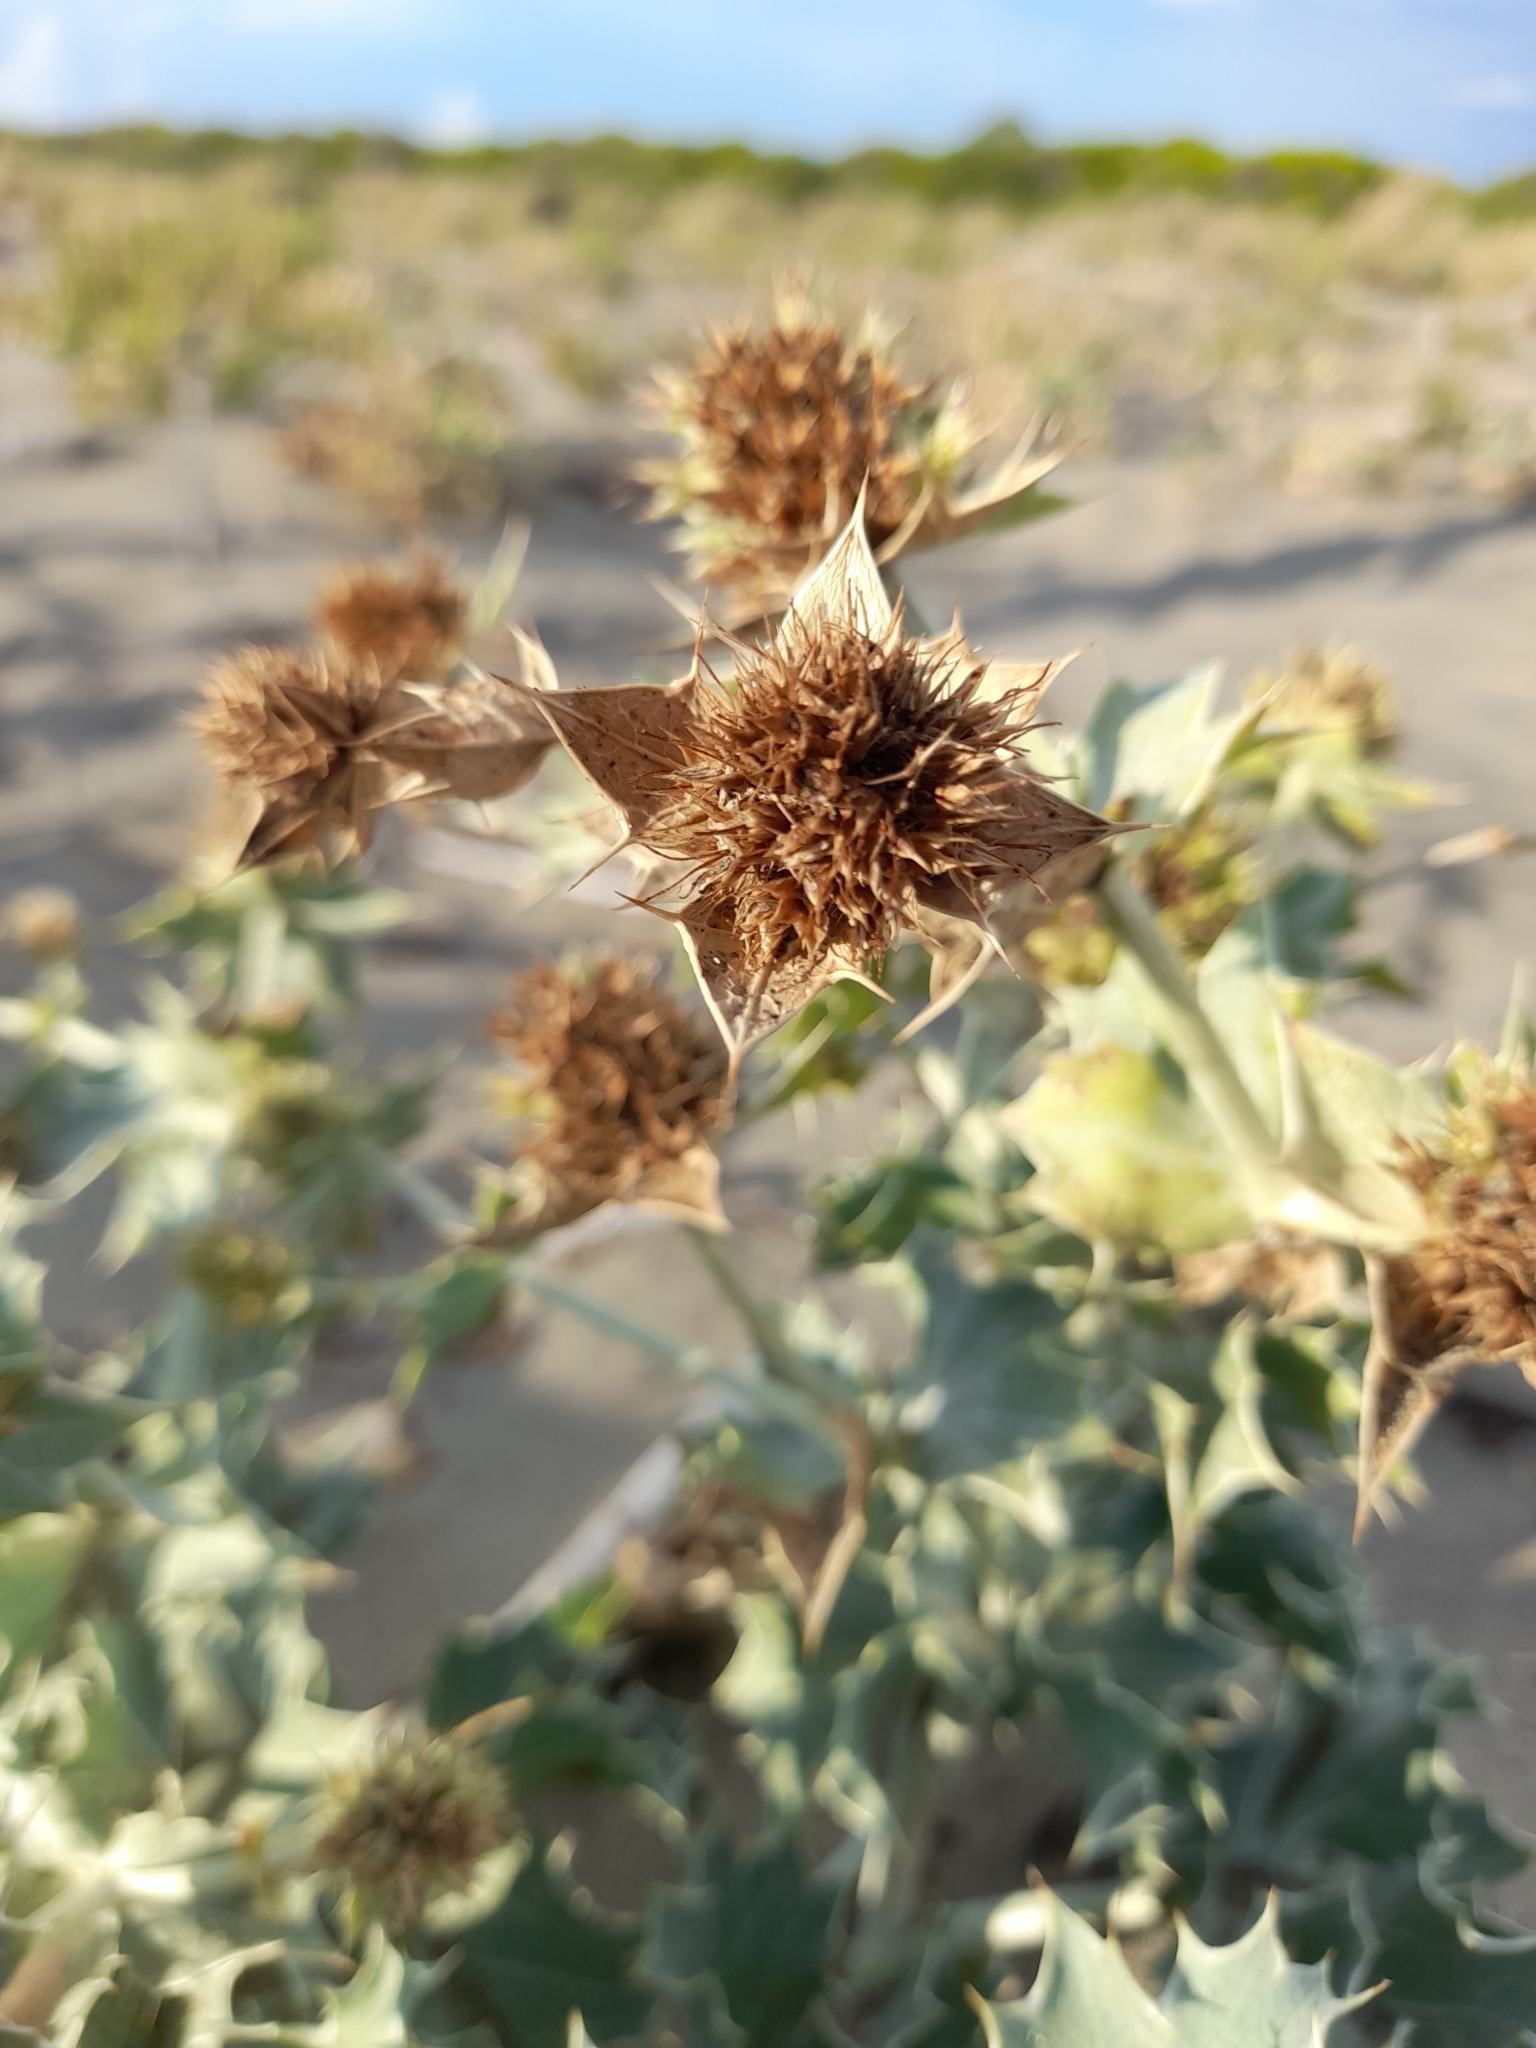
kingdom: Plantae
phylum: Tracheophyta
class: Magnoliopsida
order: Apiales
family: Apiaceae
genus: Eryngium
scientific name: Eryngium maritimum
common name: Sea-holly
